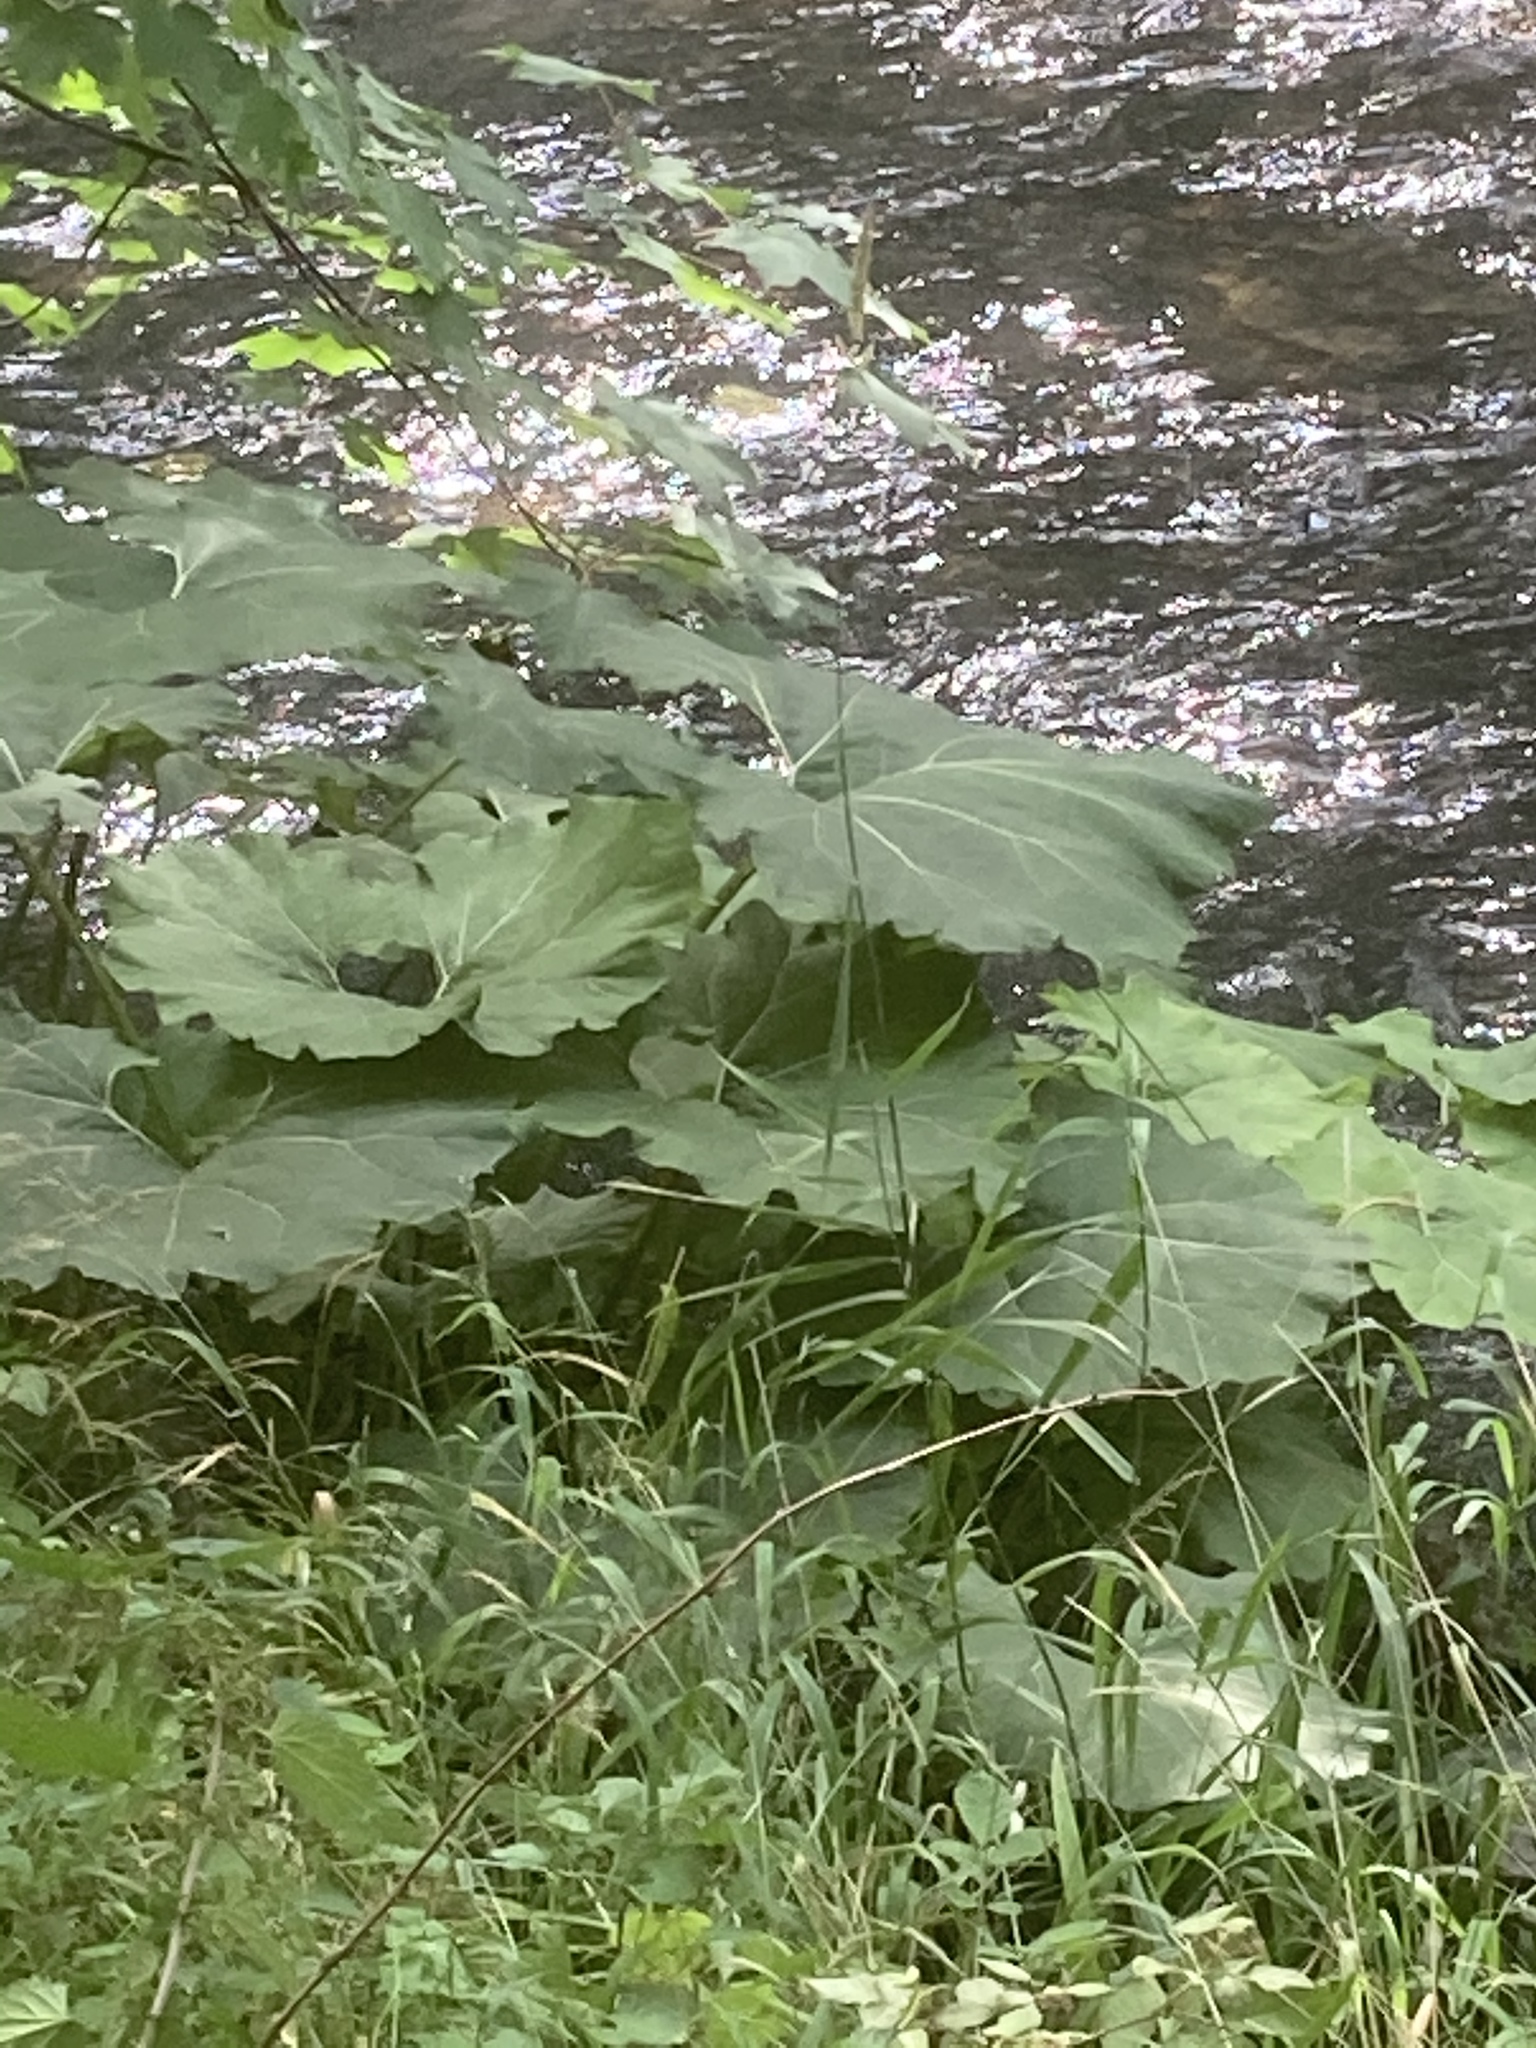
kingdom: Plantae
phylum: Tracheophyta
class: Magnoliopsida
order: Asterales
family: Asteraceae
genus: Petasites
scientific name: Petasites hybridus
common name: Butterbur
